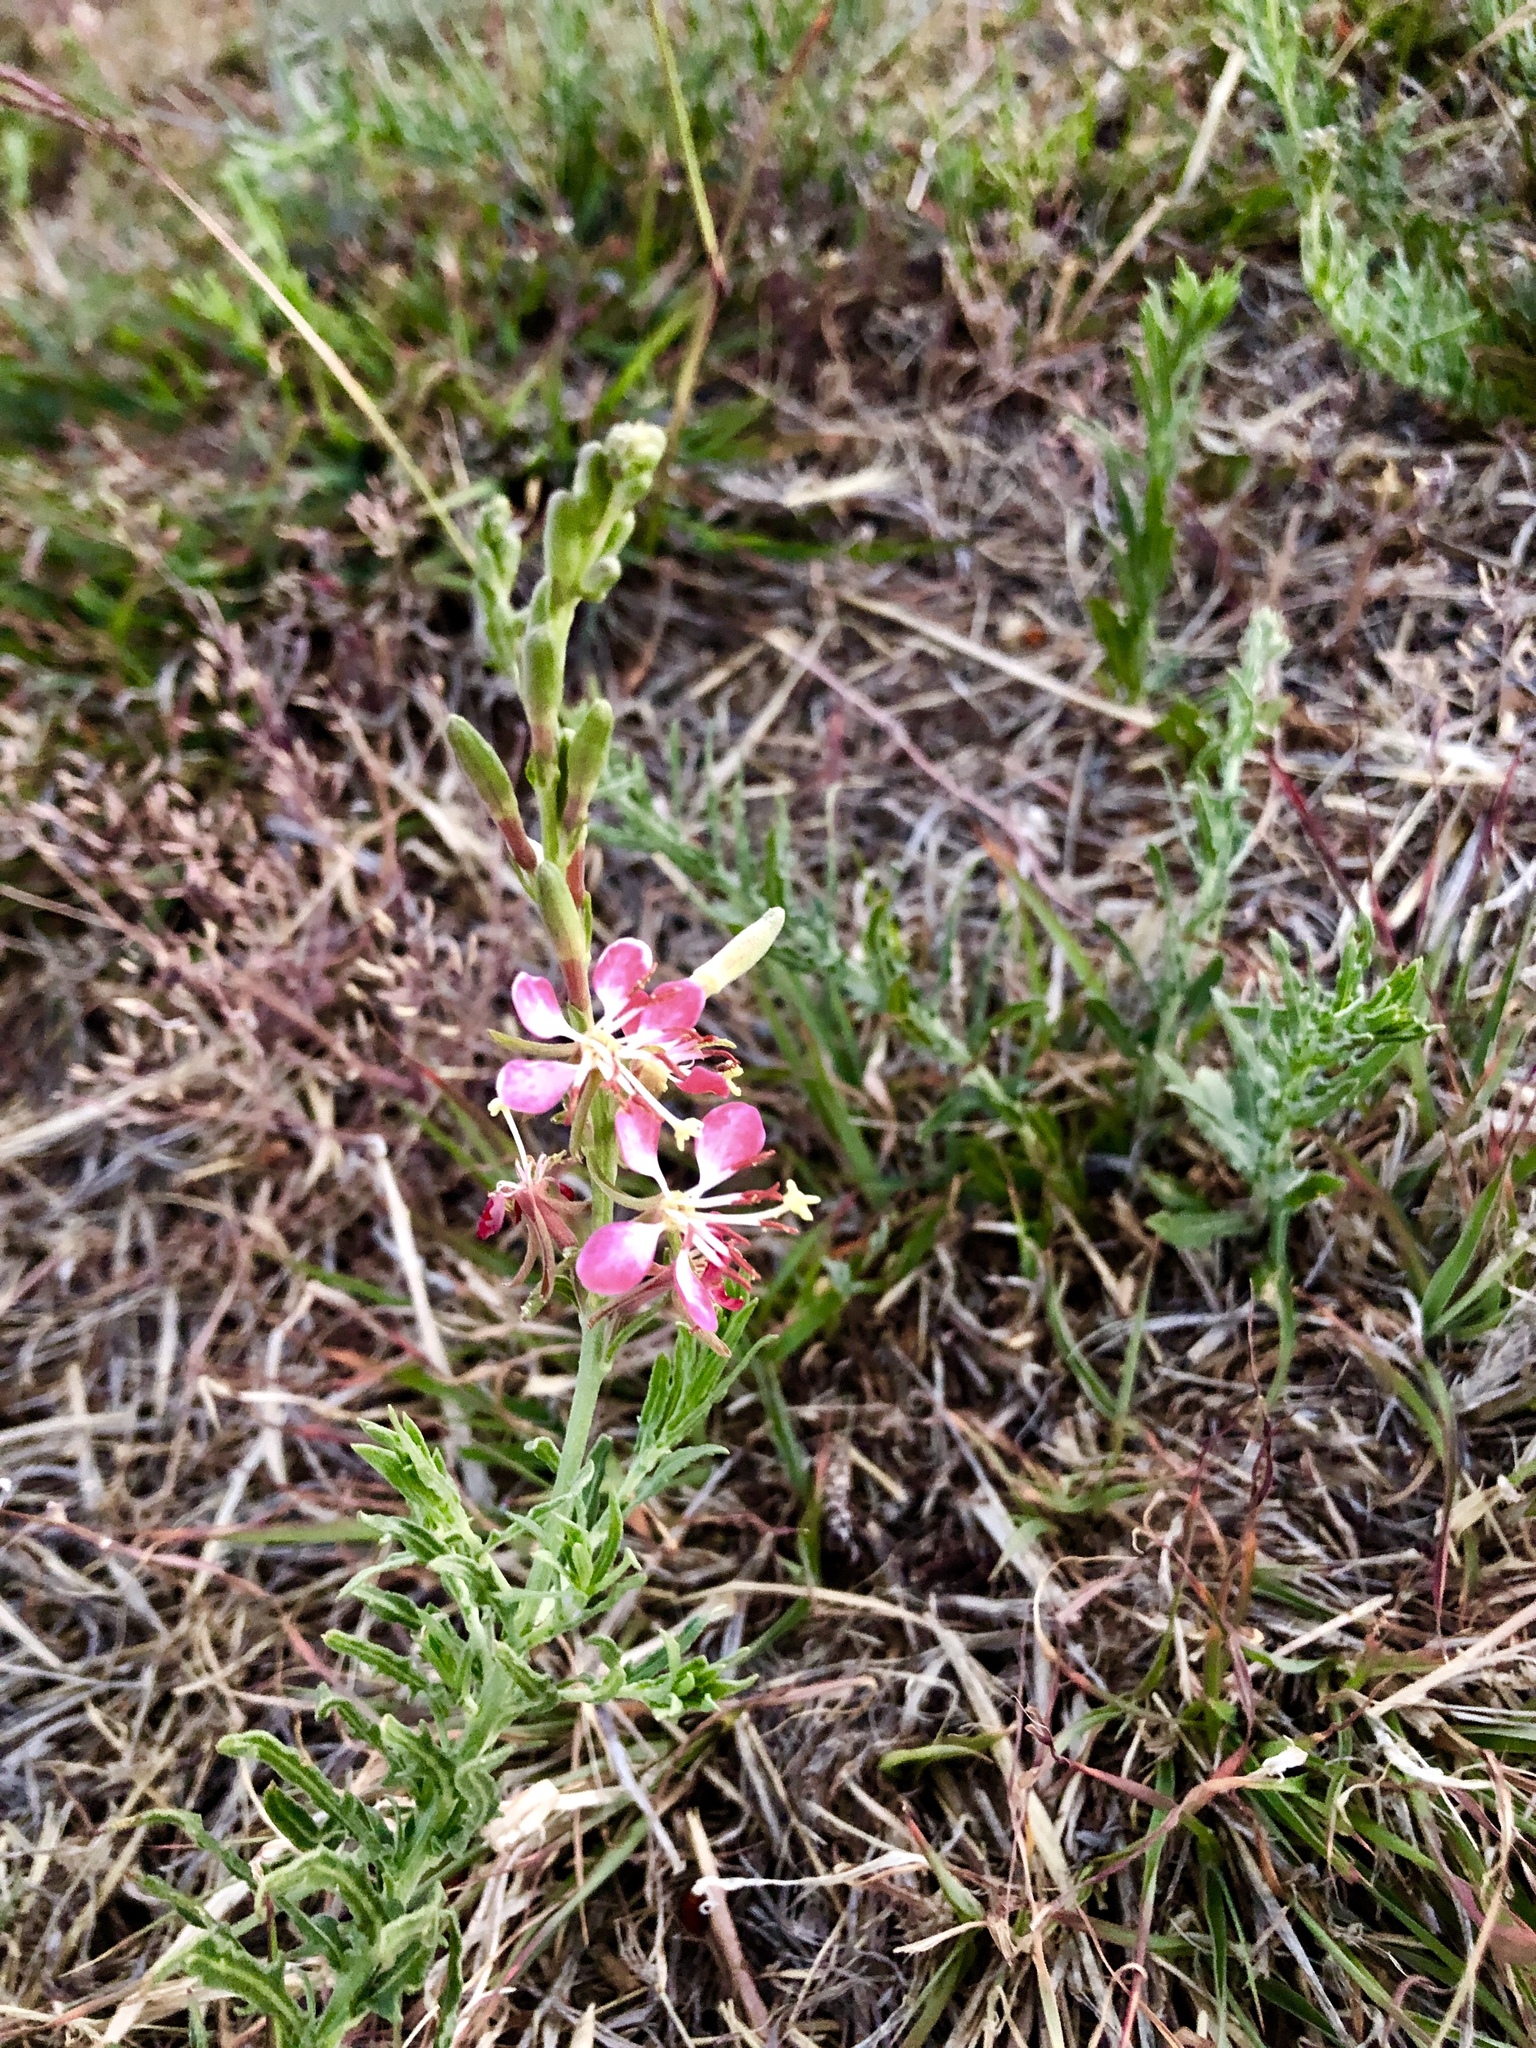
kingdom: Plantae
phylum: Tracheophyta
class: Magnoliopsida
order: Myrtales
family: Onagraceae
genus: Oenothera
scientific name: Oenothera suffrutescens
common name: Scarlet beeblossom
